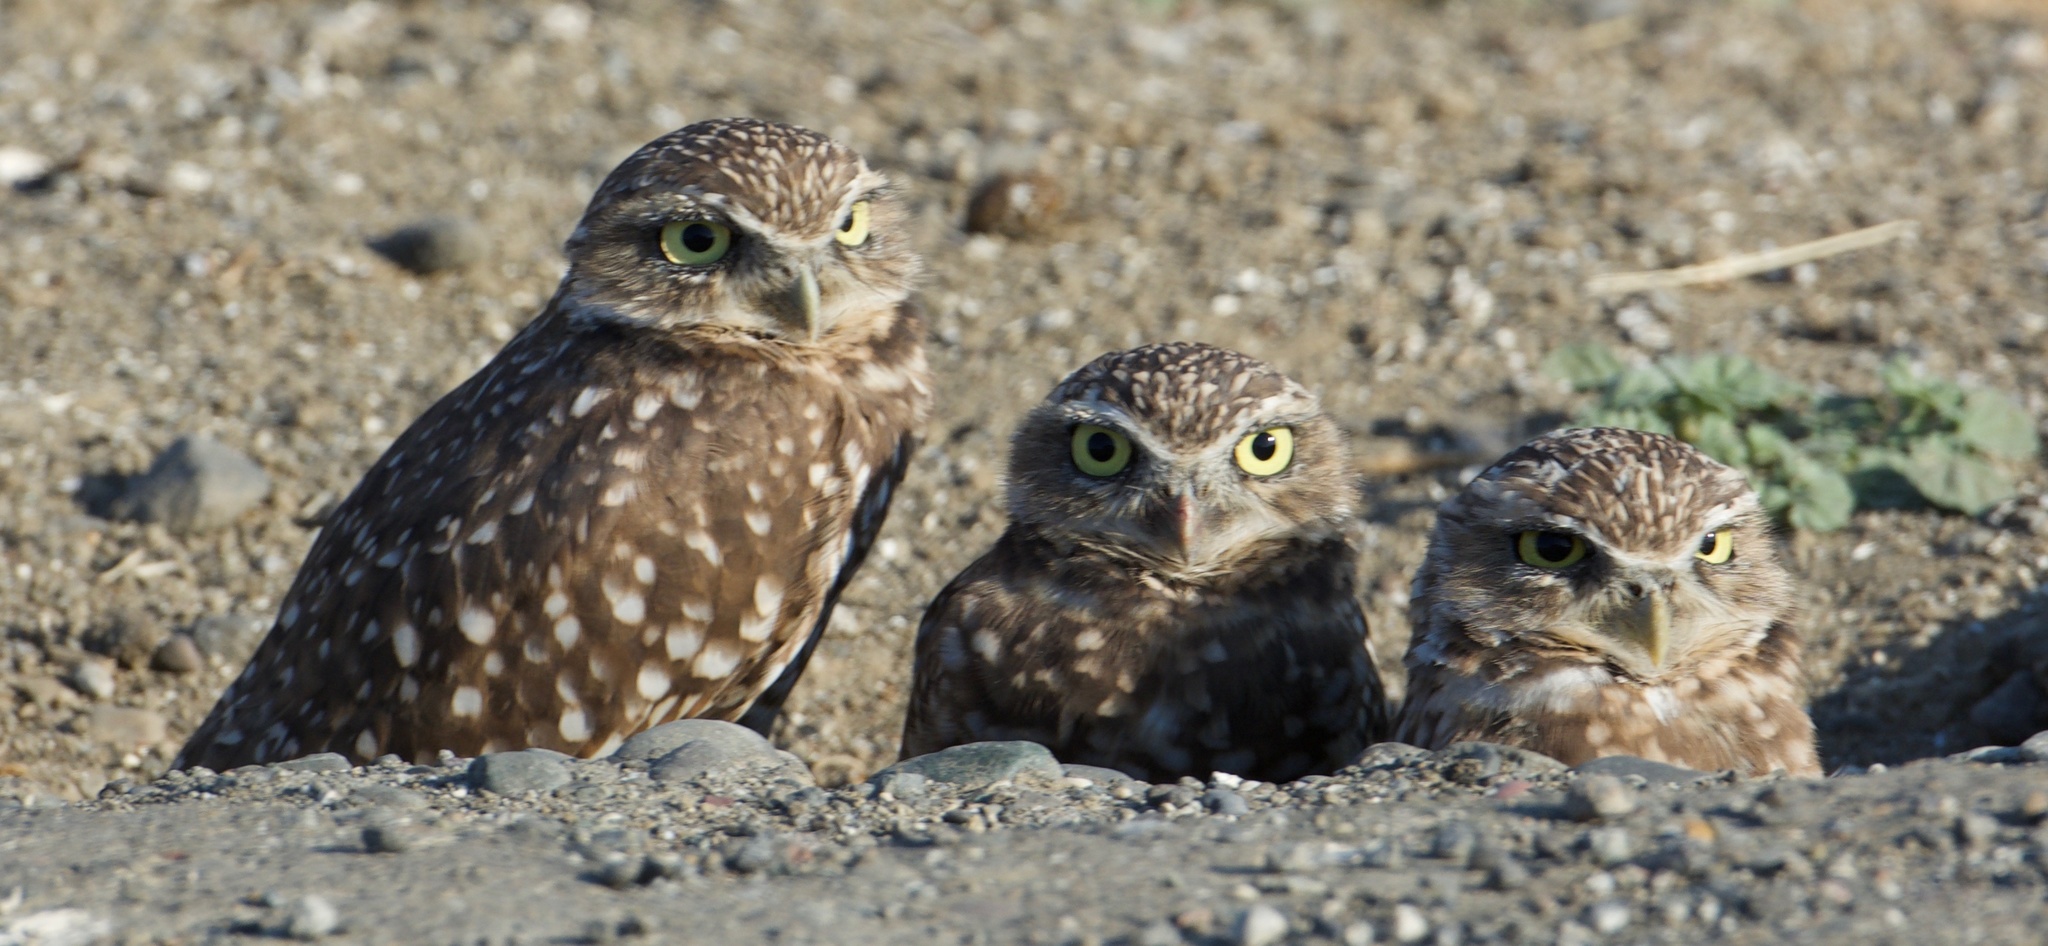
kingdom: Animalia
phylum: Chordata
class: Aves
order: Strigiformes
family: Strigidae
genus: Athene
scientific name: Athene cunicularia
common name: Burrowing owl
